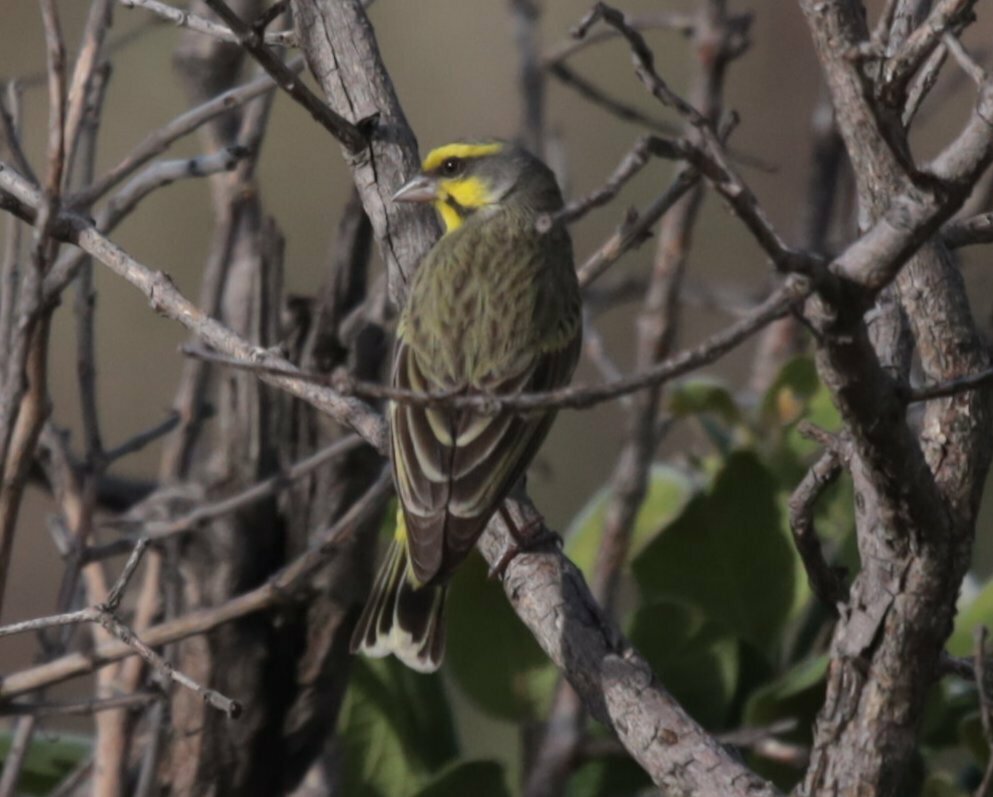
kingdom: Animalia
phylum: Chordata
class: Aves
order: Passeriformes
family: Fringillidae
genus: Crithagra
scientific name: Crithagra mozambica
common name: Yellow-fronted canary
